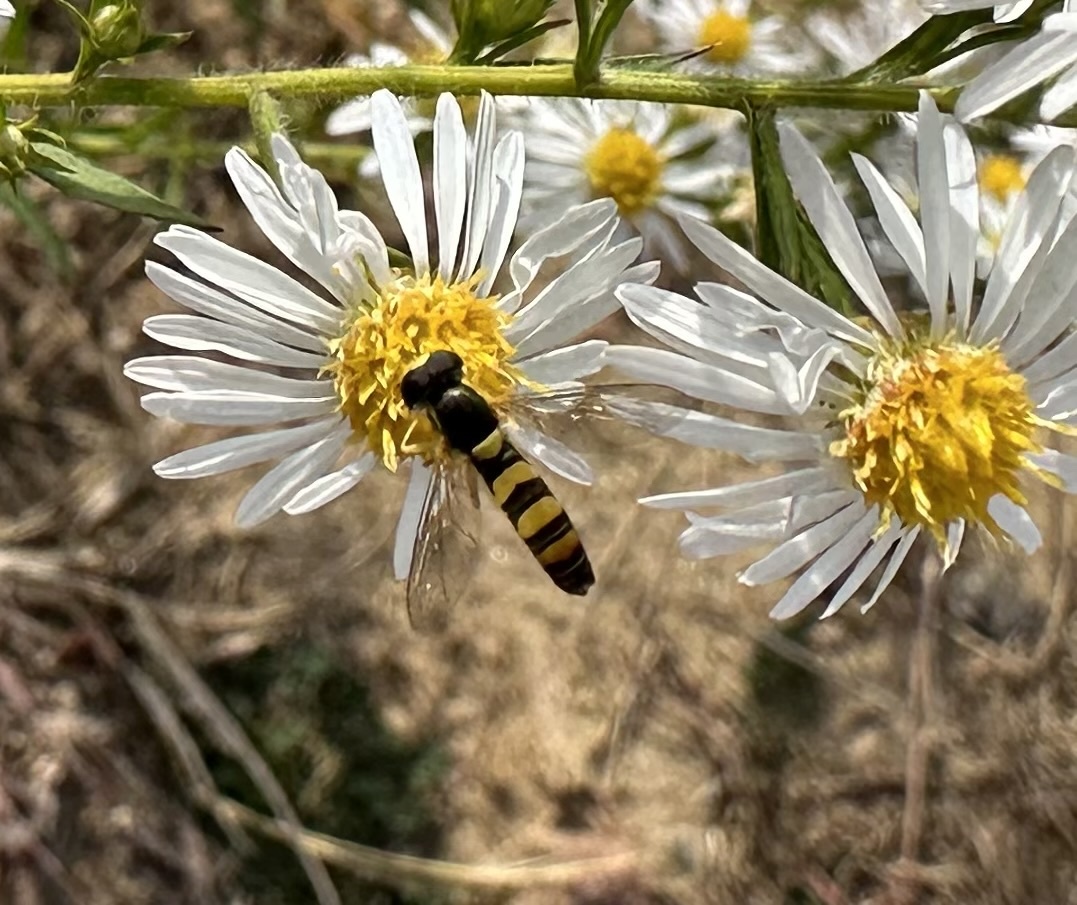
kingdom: Animalia
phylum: Arthropoda
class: Insecta
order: Diptera
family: Syrphidae
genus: Sphaerophoria
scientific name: Sphaerophoria contigua
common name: Tufted globetail
